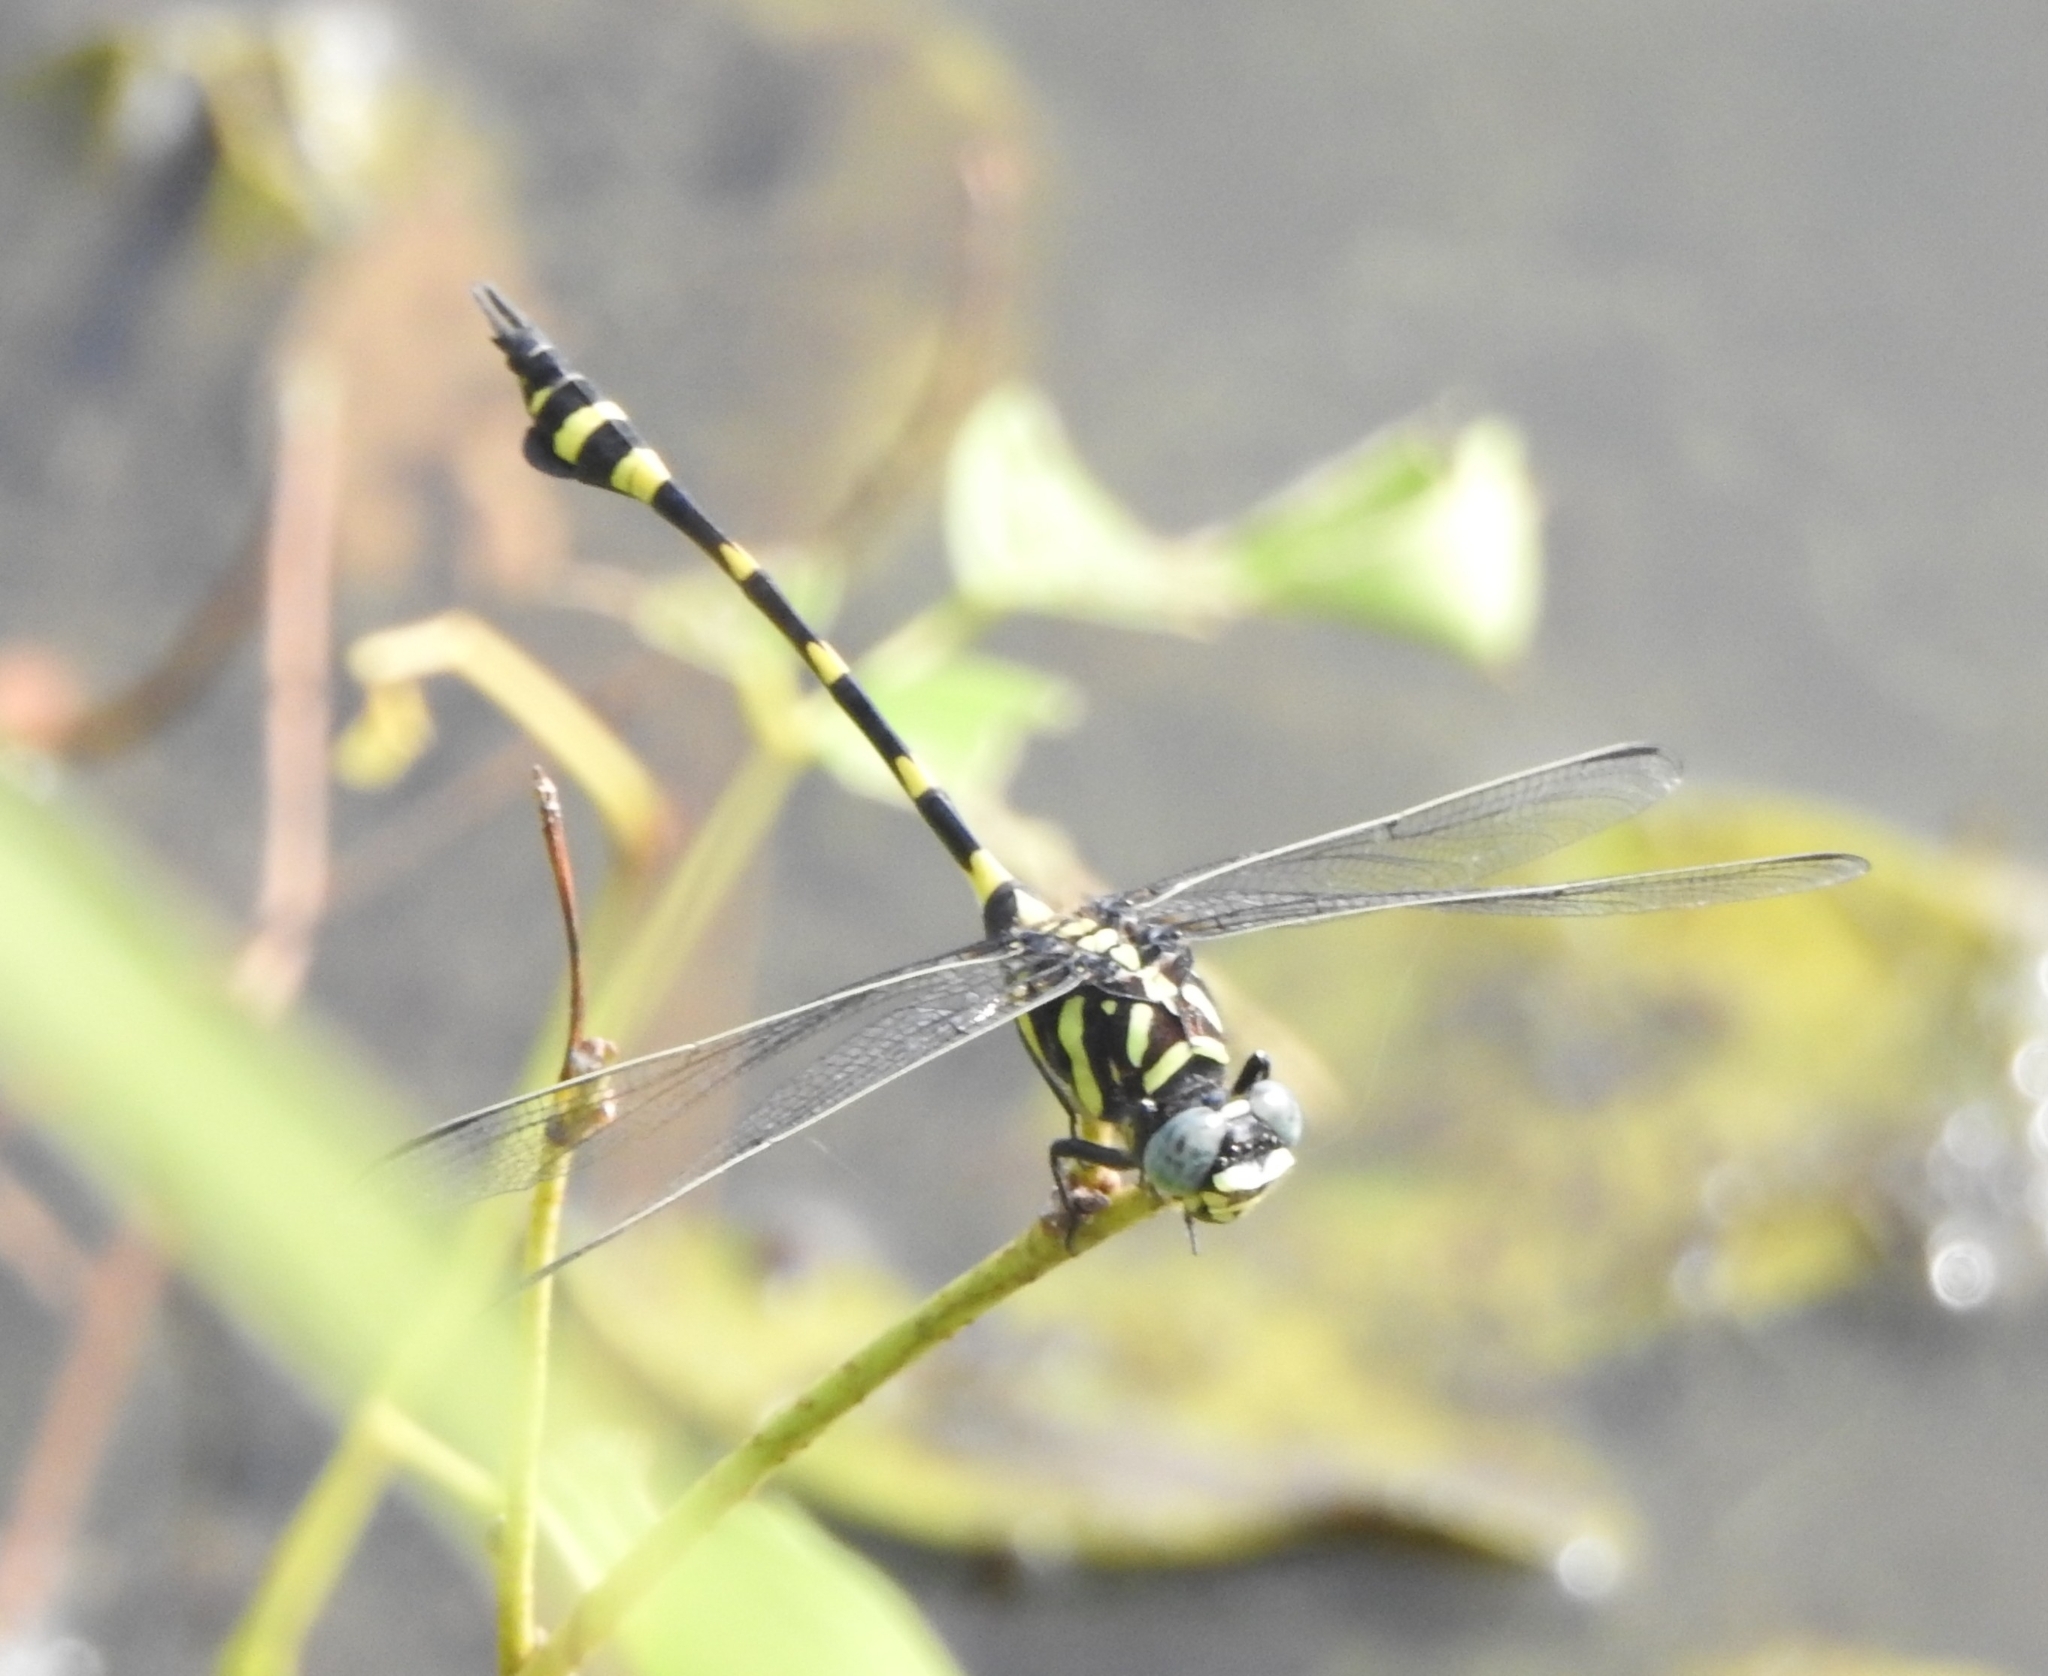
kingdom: Animalia
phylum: Arthropoda
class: Insecta
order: Odonata
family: Gomphidae
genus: Ictinogomphus
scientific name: Ictinogomphus rapax
